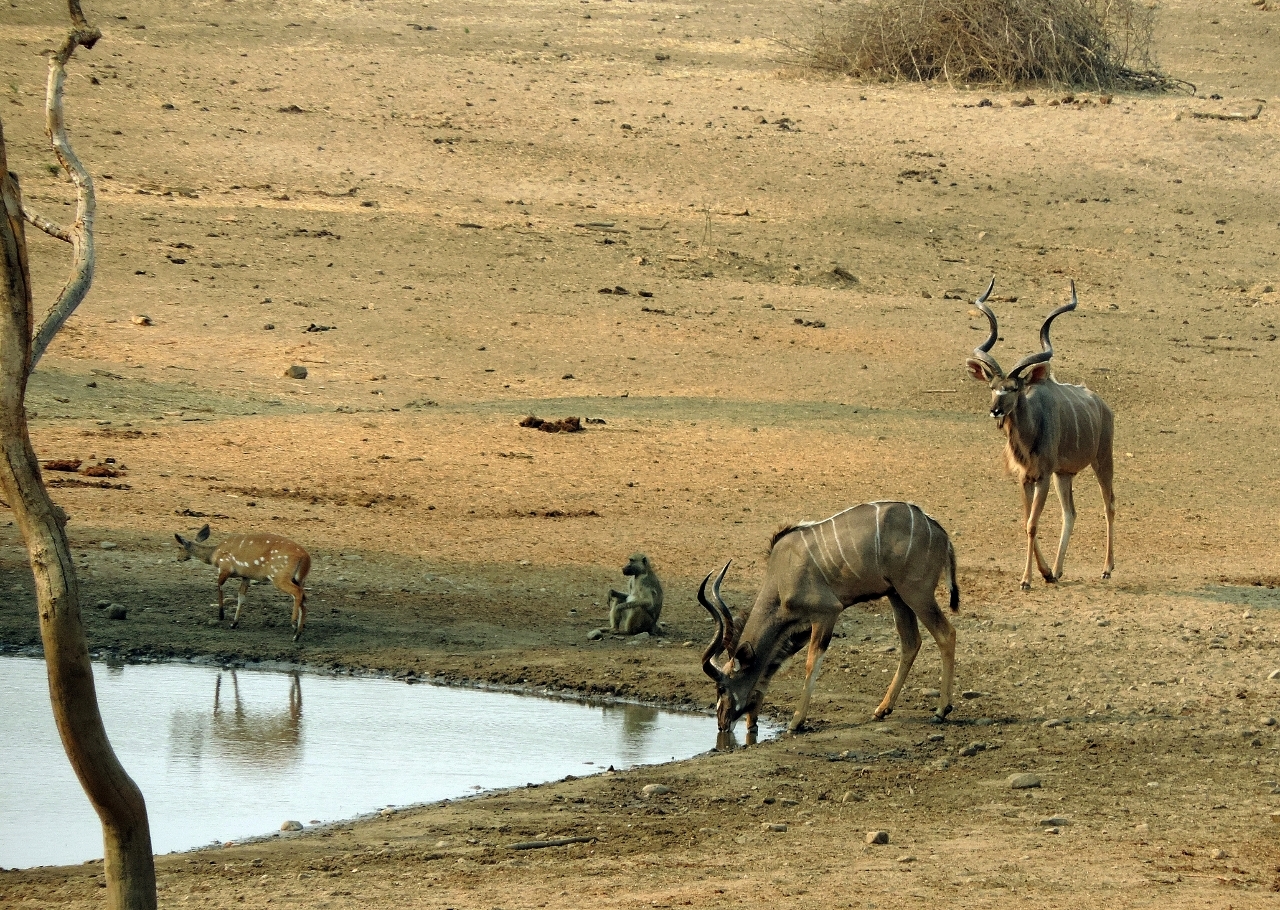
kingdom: Animalia
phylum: Chordata
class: Mammalia
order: Artiodactyla
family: Bovidae
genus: Tragelaphus
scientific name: Tragelaphus strepsiceros
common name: Greater kudu
